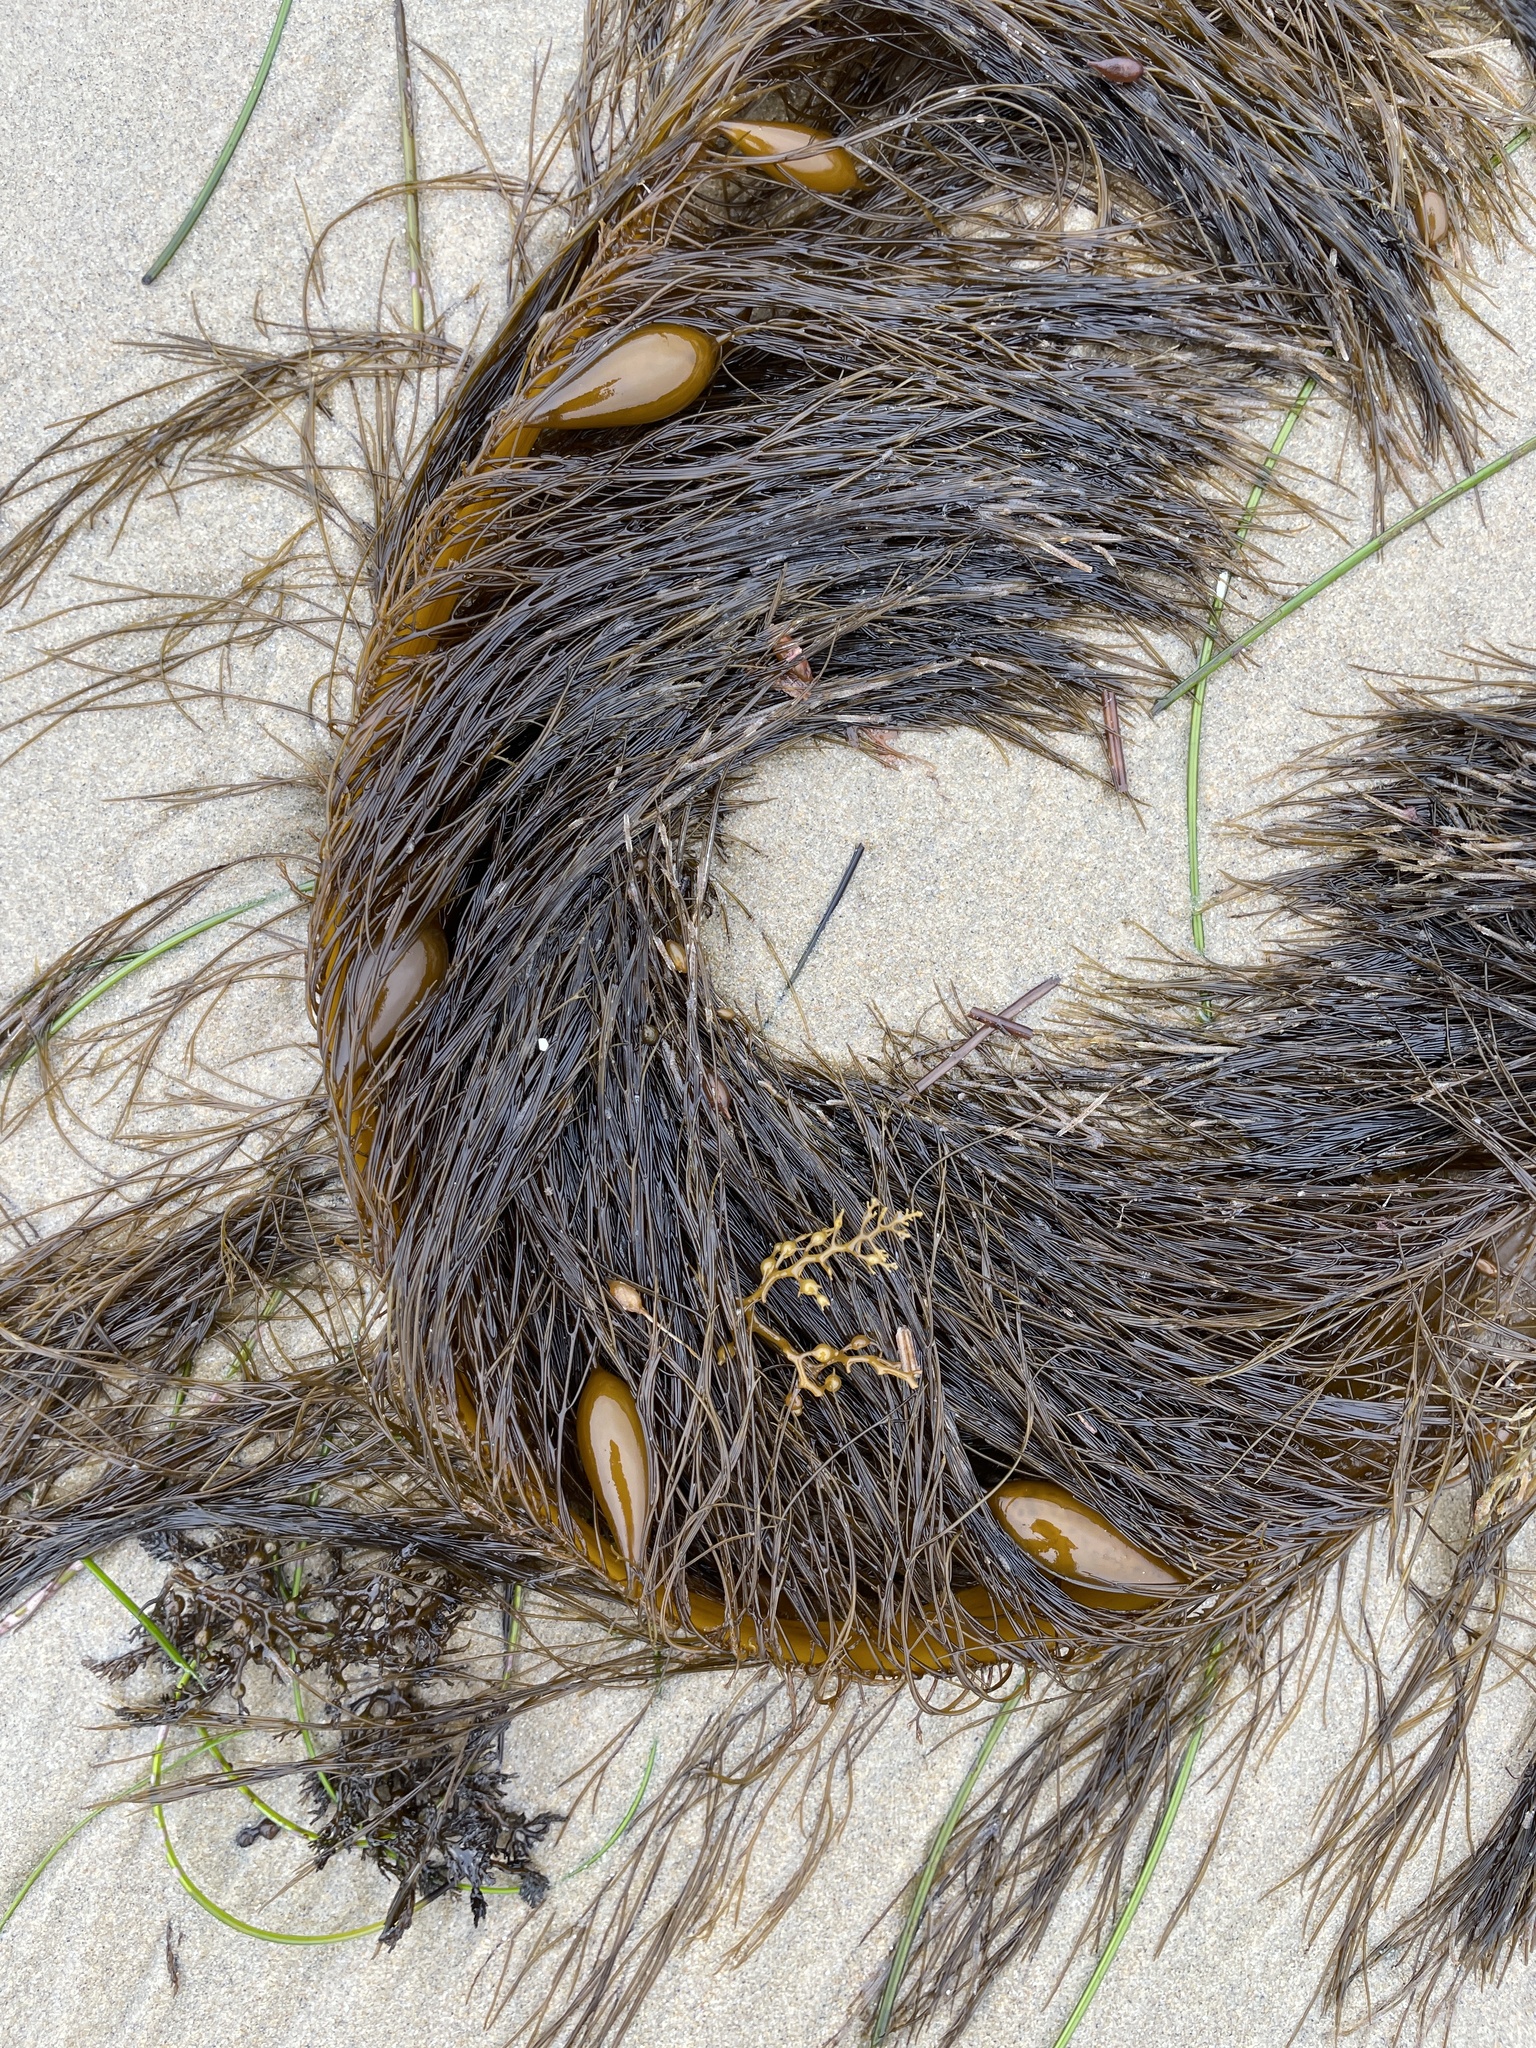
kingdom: Chromista
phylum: Ochrophyta
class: Phaeophyceae
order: Laminariales
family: Lessoniaceae
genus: Egregia
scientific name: Egregia menziesii
